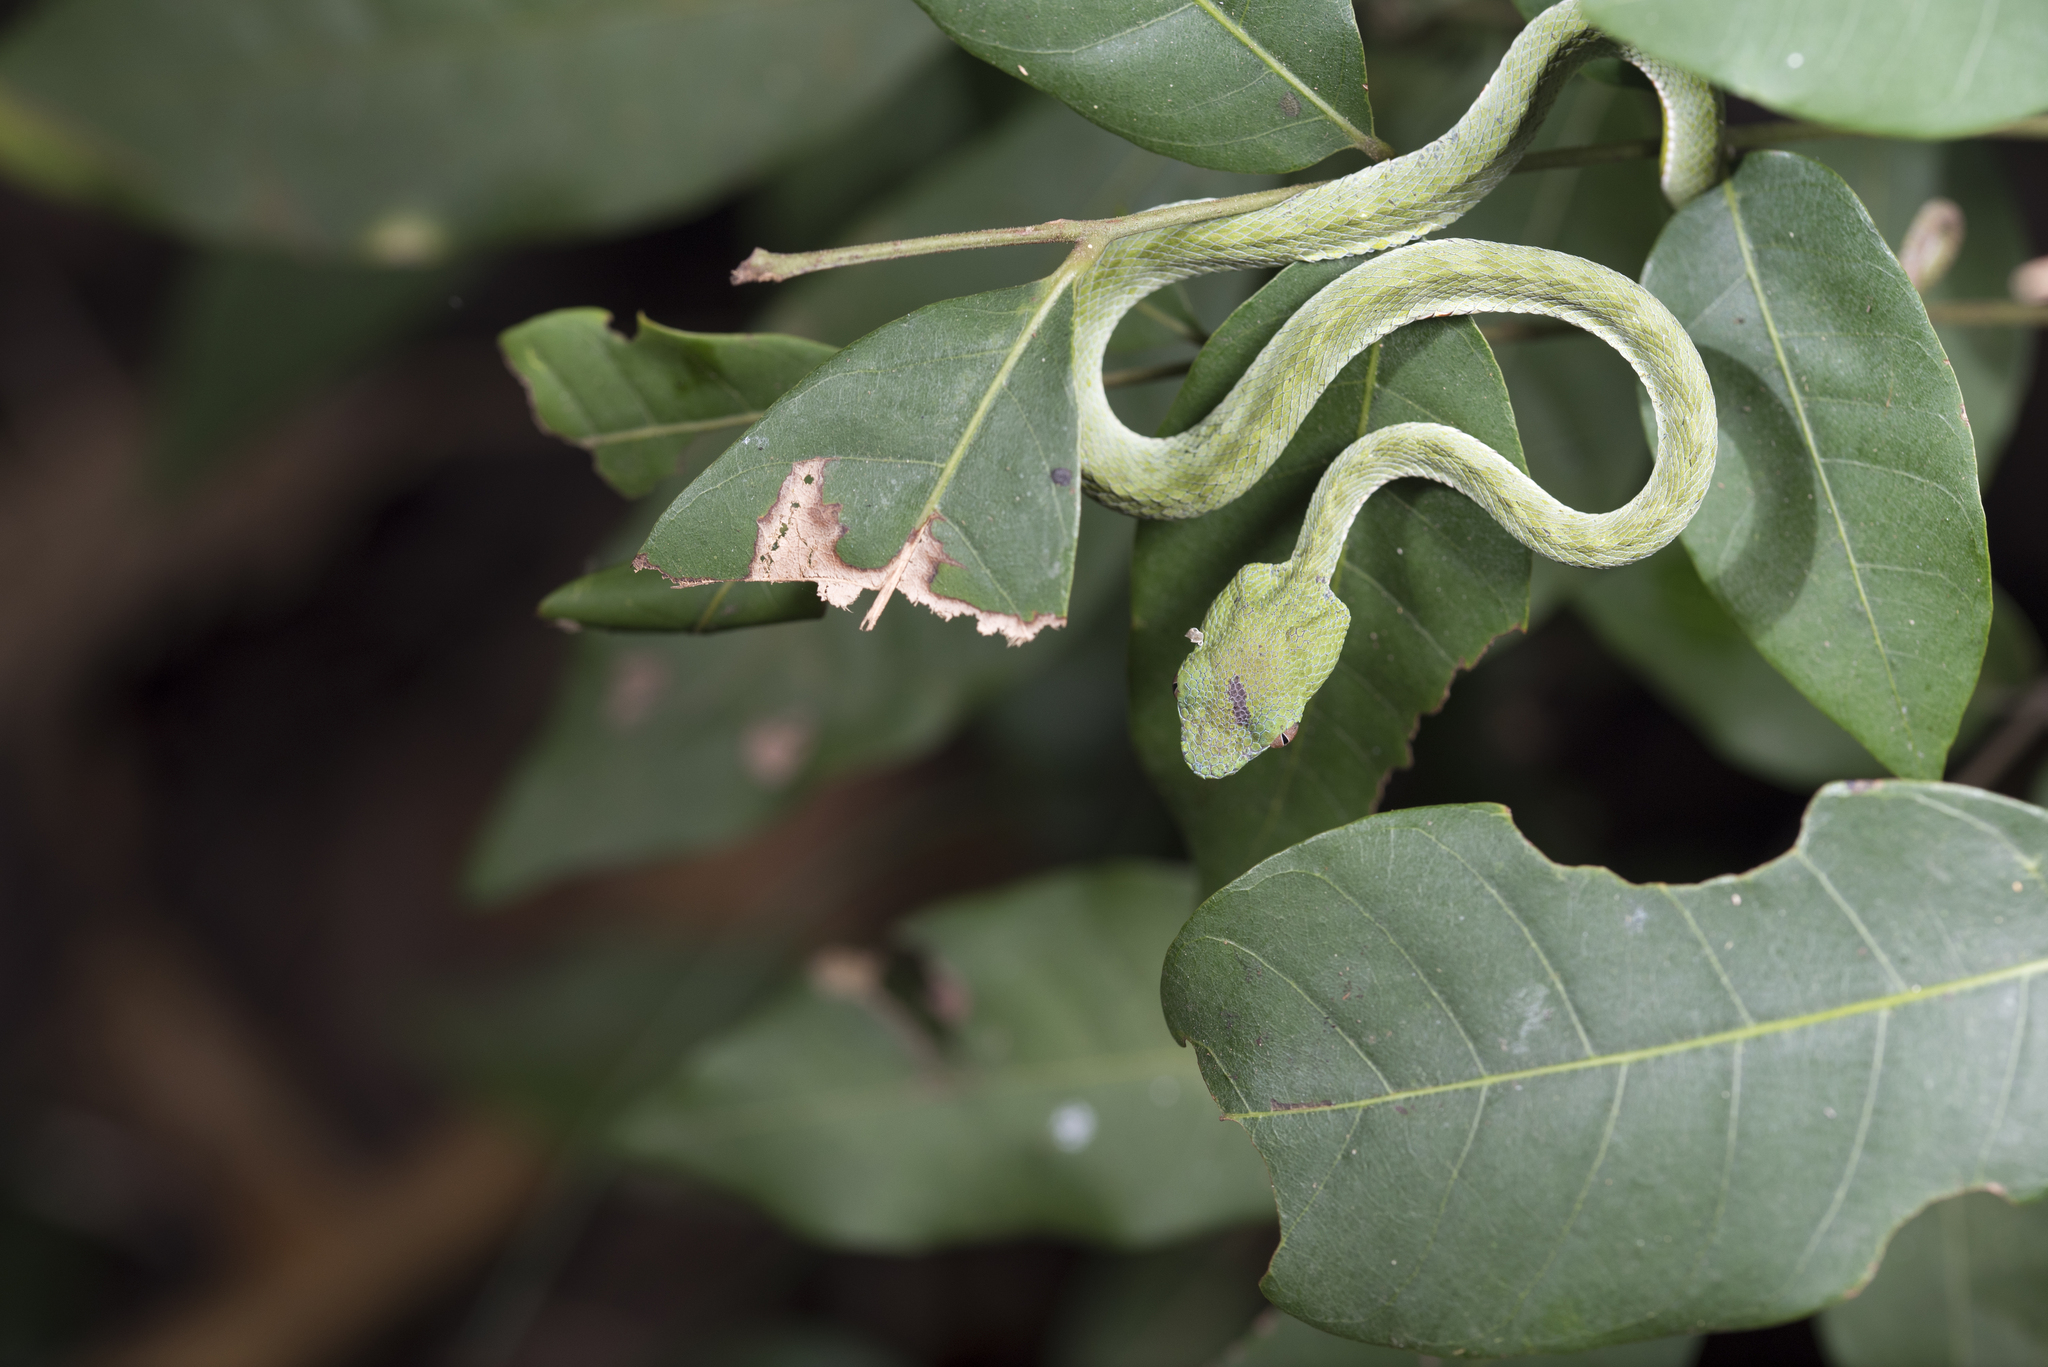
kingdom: Animalia
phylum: Chordata
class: Squamata
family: Viperidae
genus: Trimeresurus
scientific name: Trimeresurus stejnegeri
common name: Chen’s bamboo pit viper
